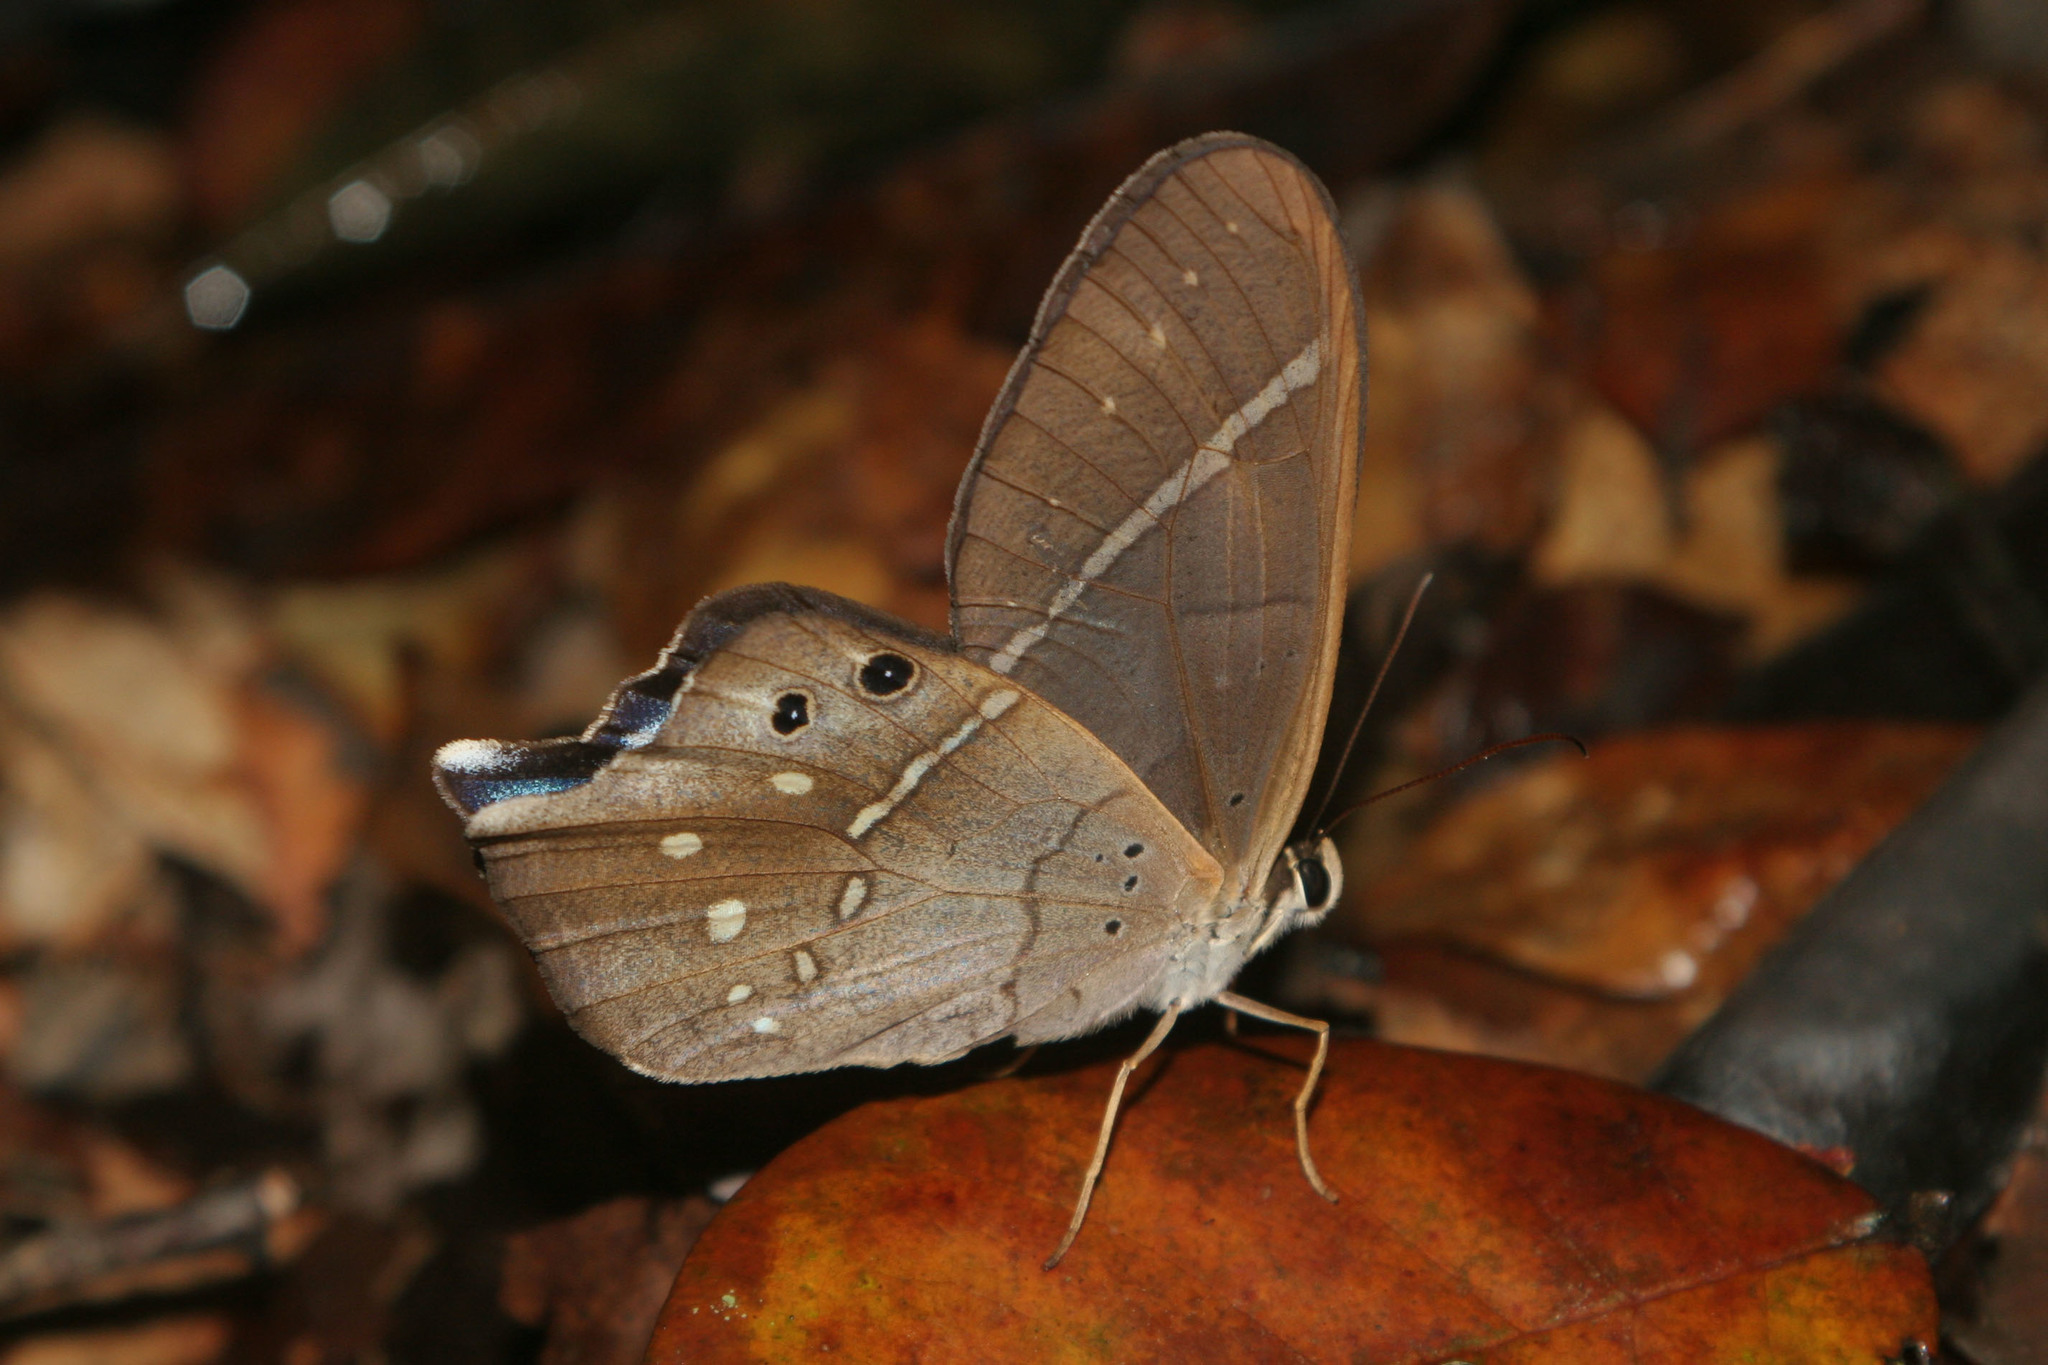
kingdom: Animalia
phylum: Arthropoda
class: Insecta
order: Lepidoptera
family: Nymphalidae
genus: Pierella
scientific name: Pierella dracontis
